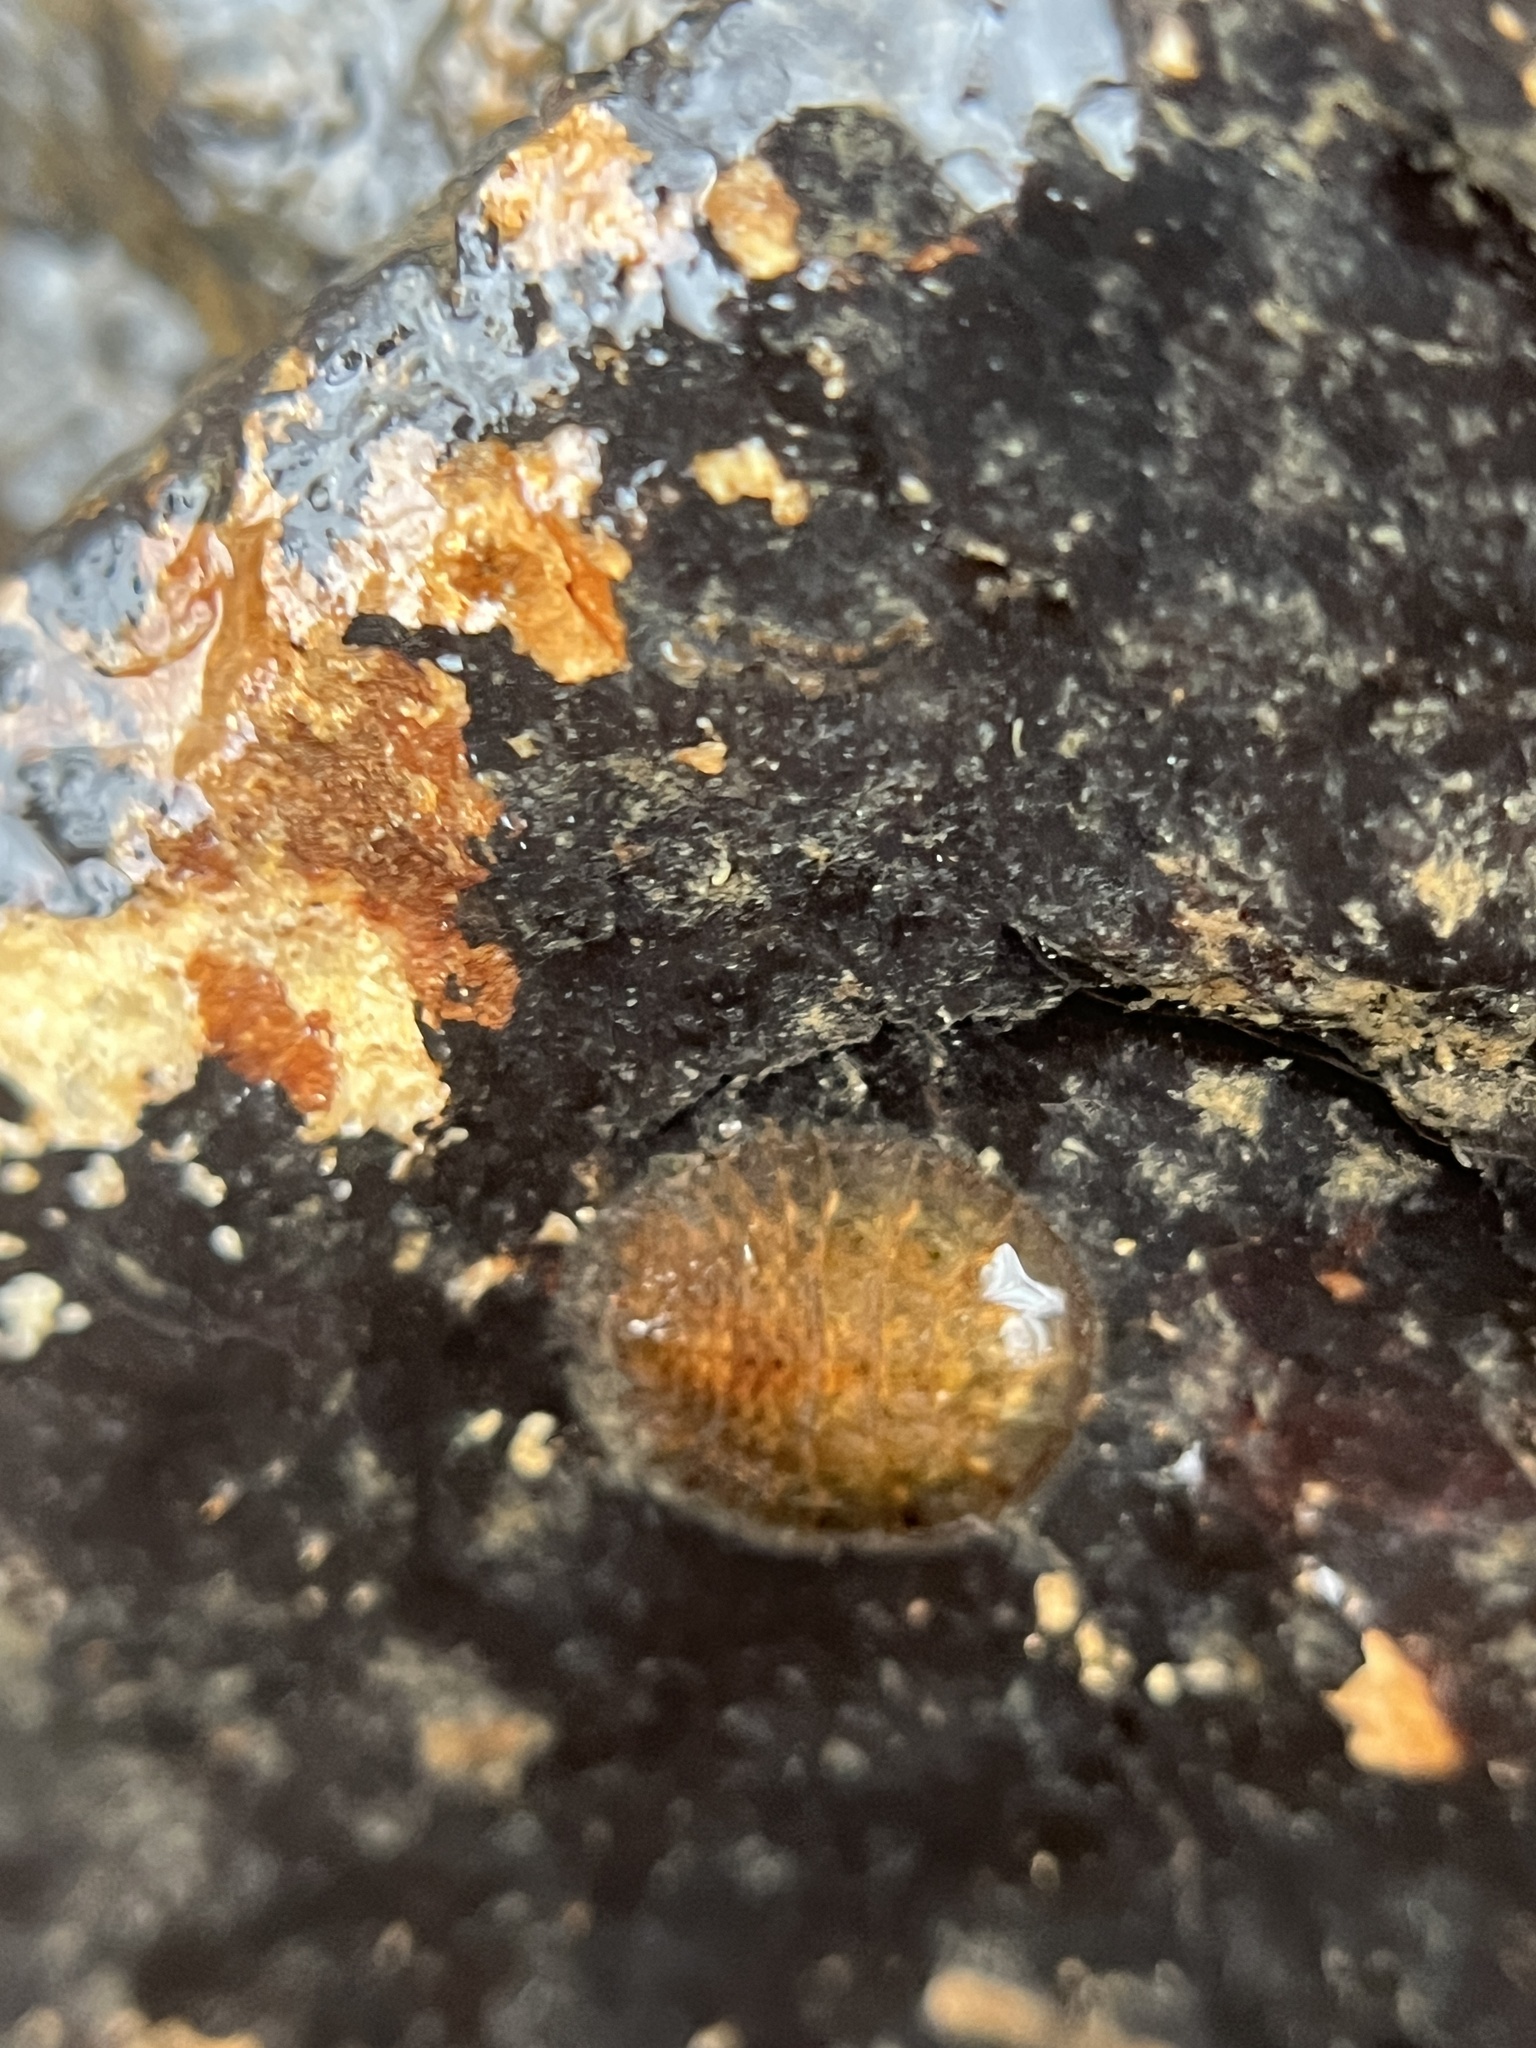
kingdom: Animalia
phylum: Arthropoda
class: Insecta
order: Coleoptera
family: Psephenidae
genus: Psephenus
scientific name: Psephenus herricki
